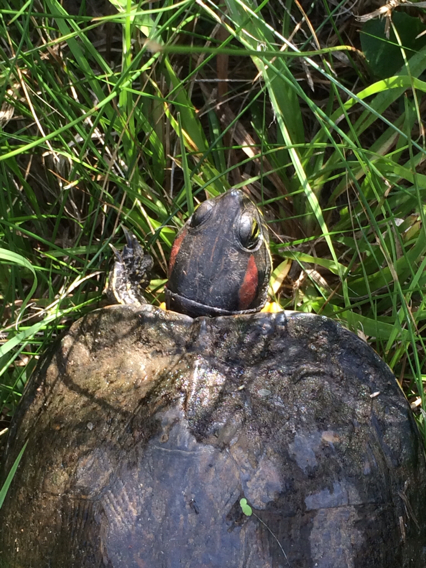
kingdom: Animalia
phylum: Chordata
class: Testudines
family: Emydidae
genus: Trachemys
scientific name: Trachemys scripta
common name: Slider
